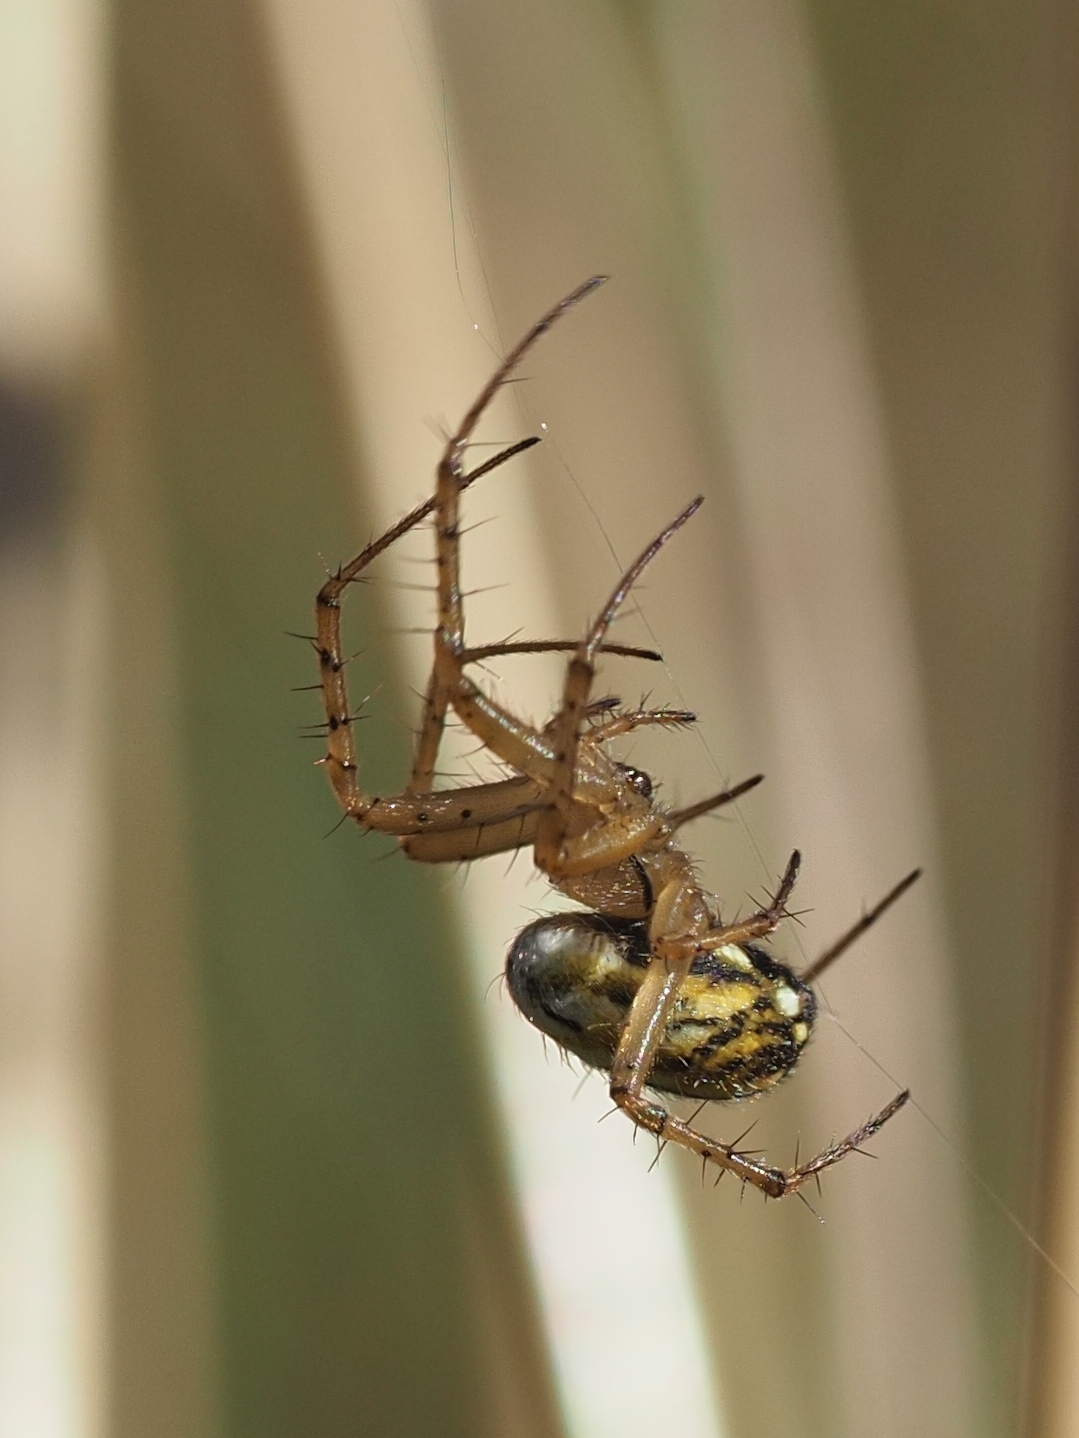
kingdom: Animalia
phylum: Arthropoda
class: Arachnida
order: Araneae
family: Araneidae
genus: Mangora
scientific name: Mangora acalypha
